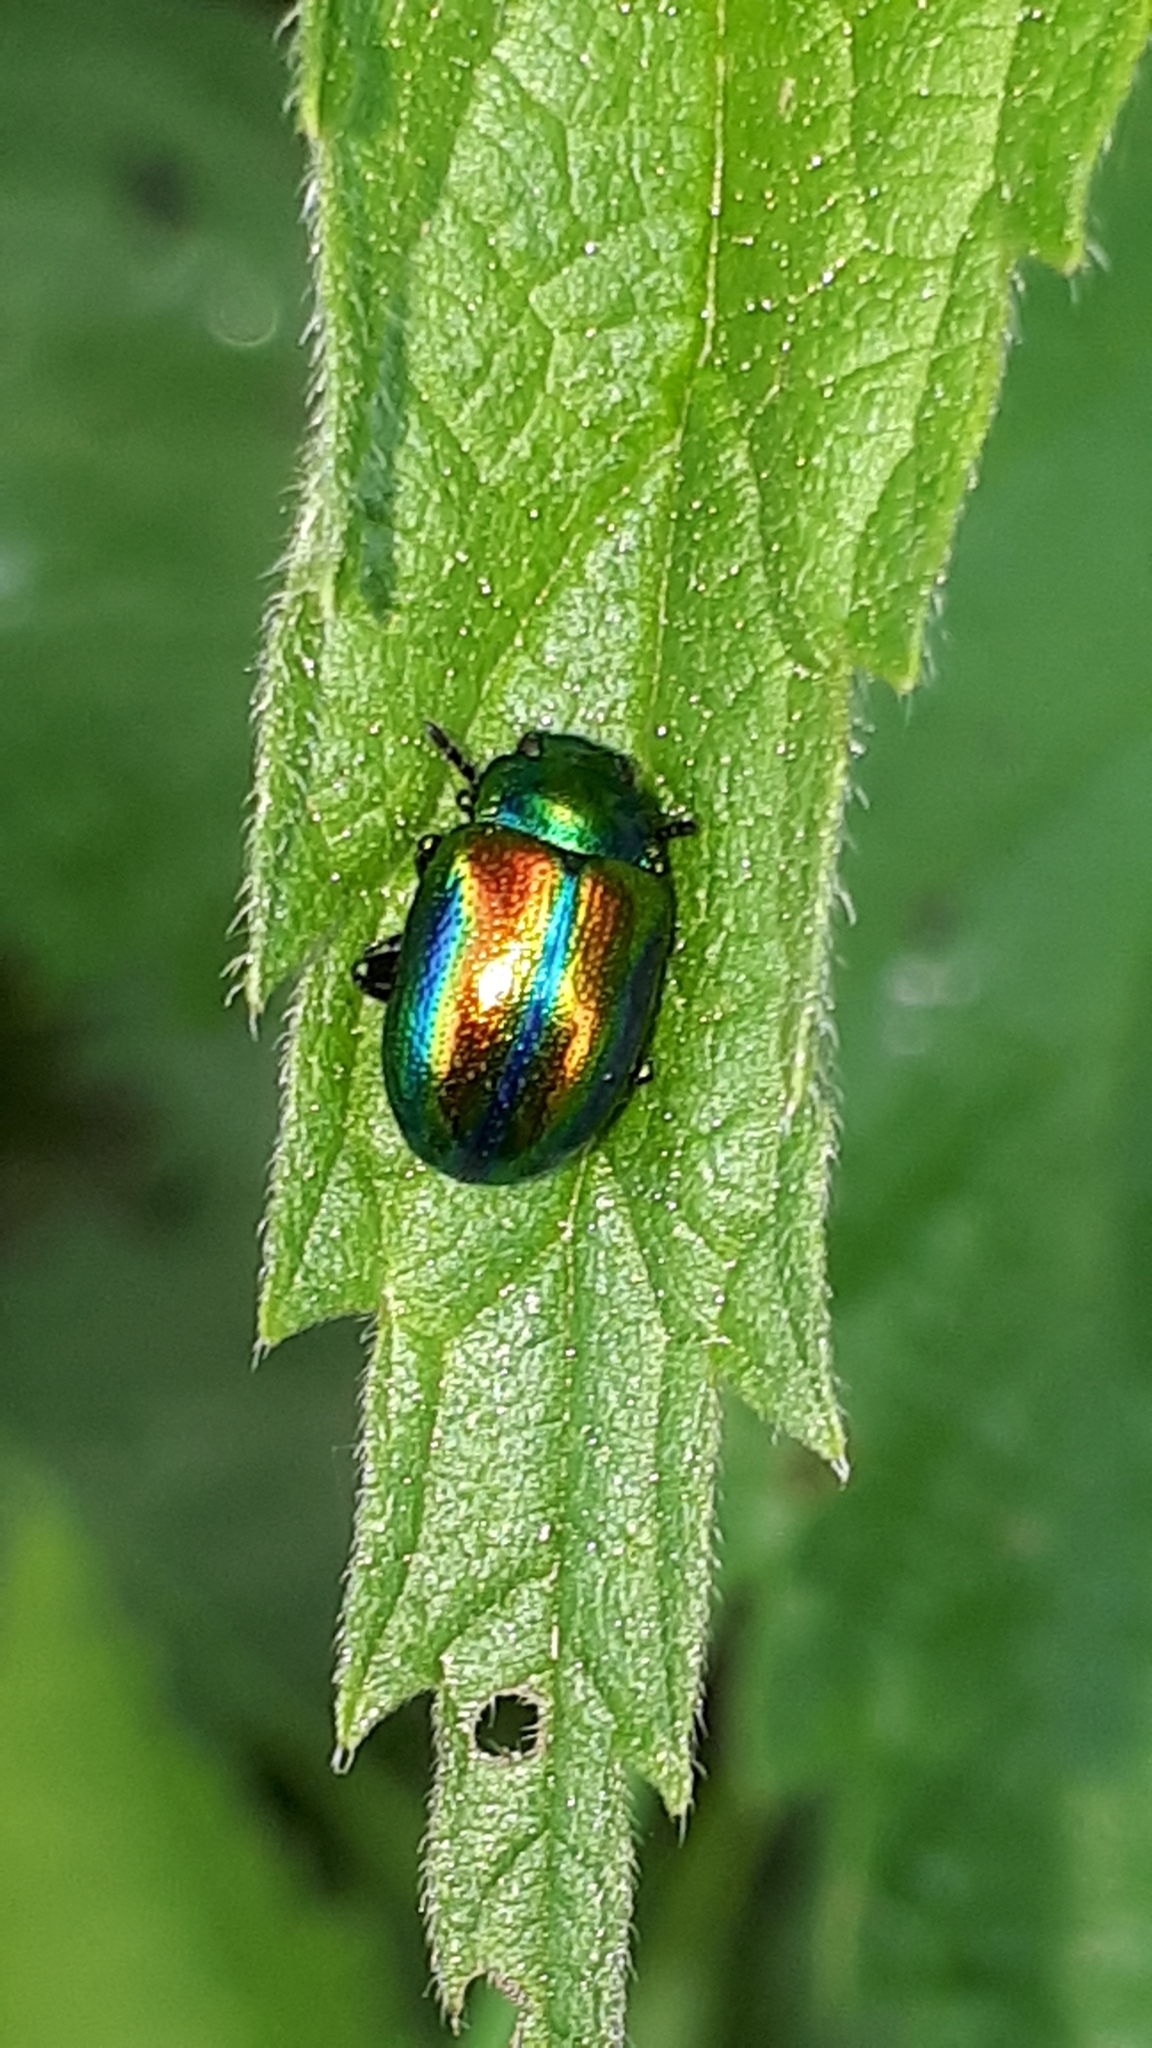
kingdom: Animalia
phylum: Arthropoda
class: Insecta
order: Coleoptera
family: Chrysomelidae
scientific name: Chrysomelidae
